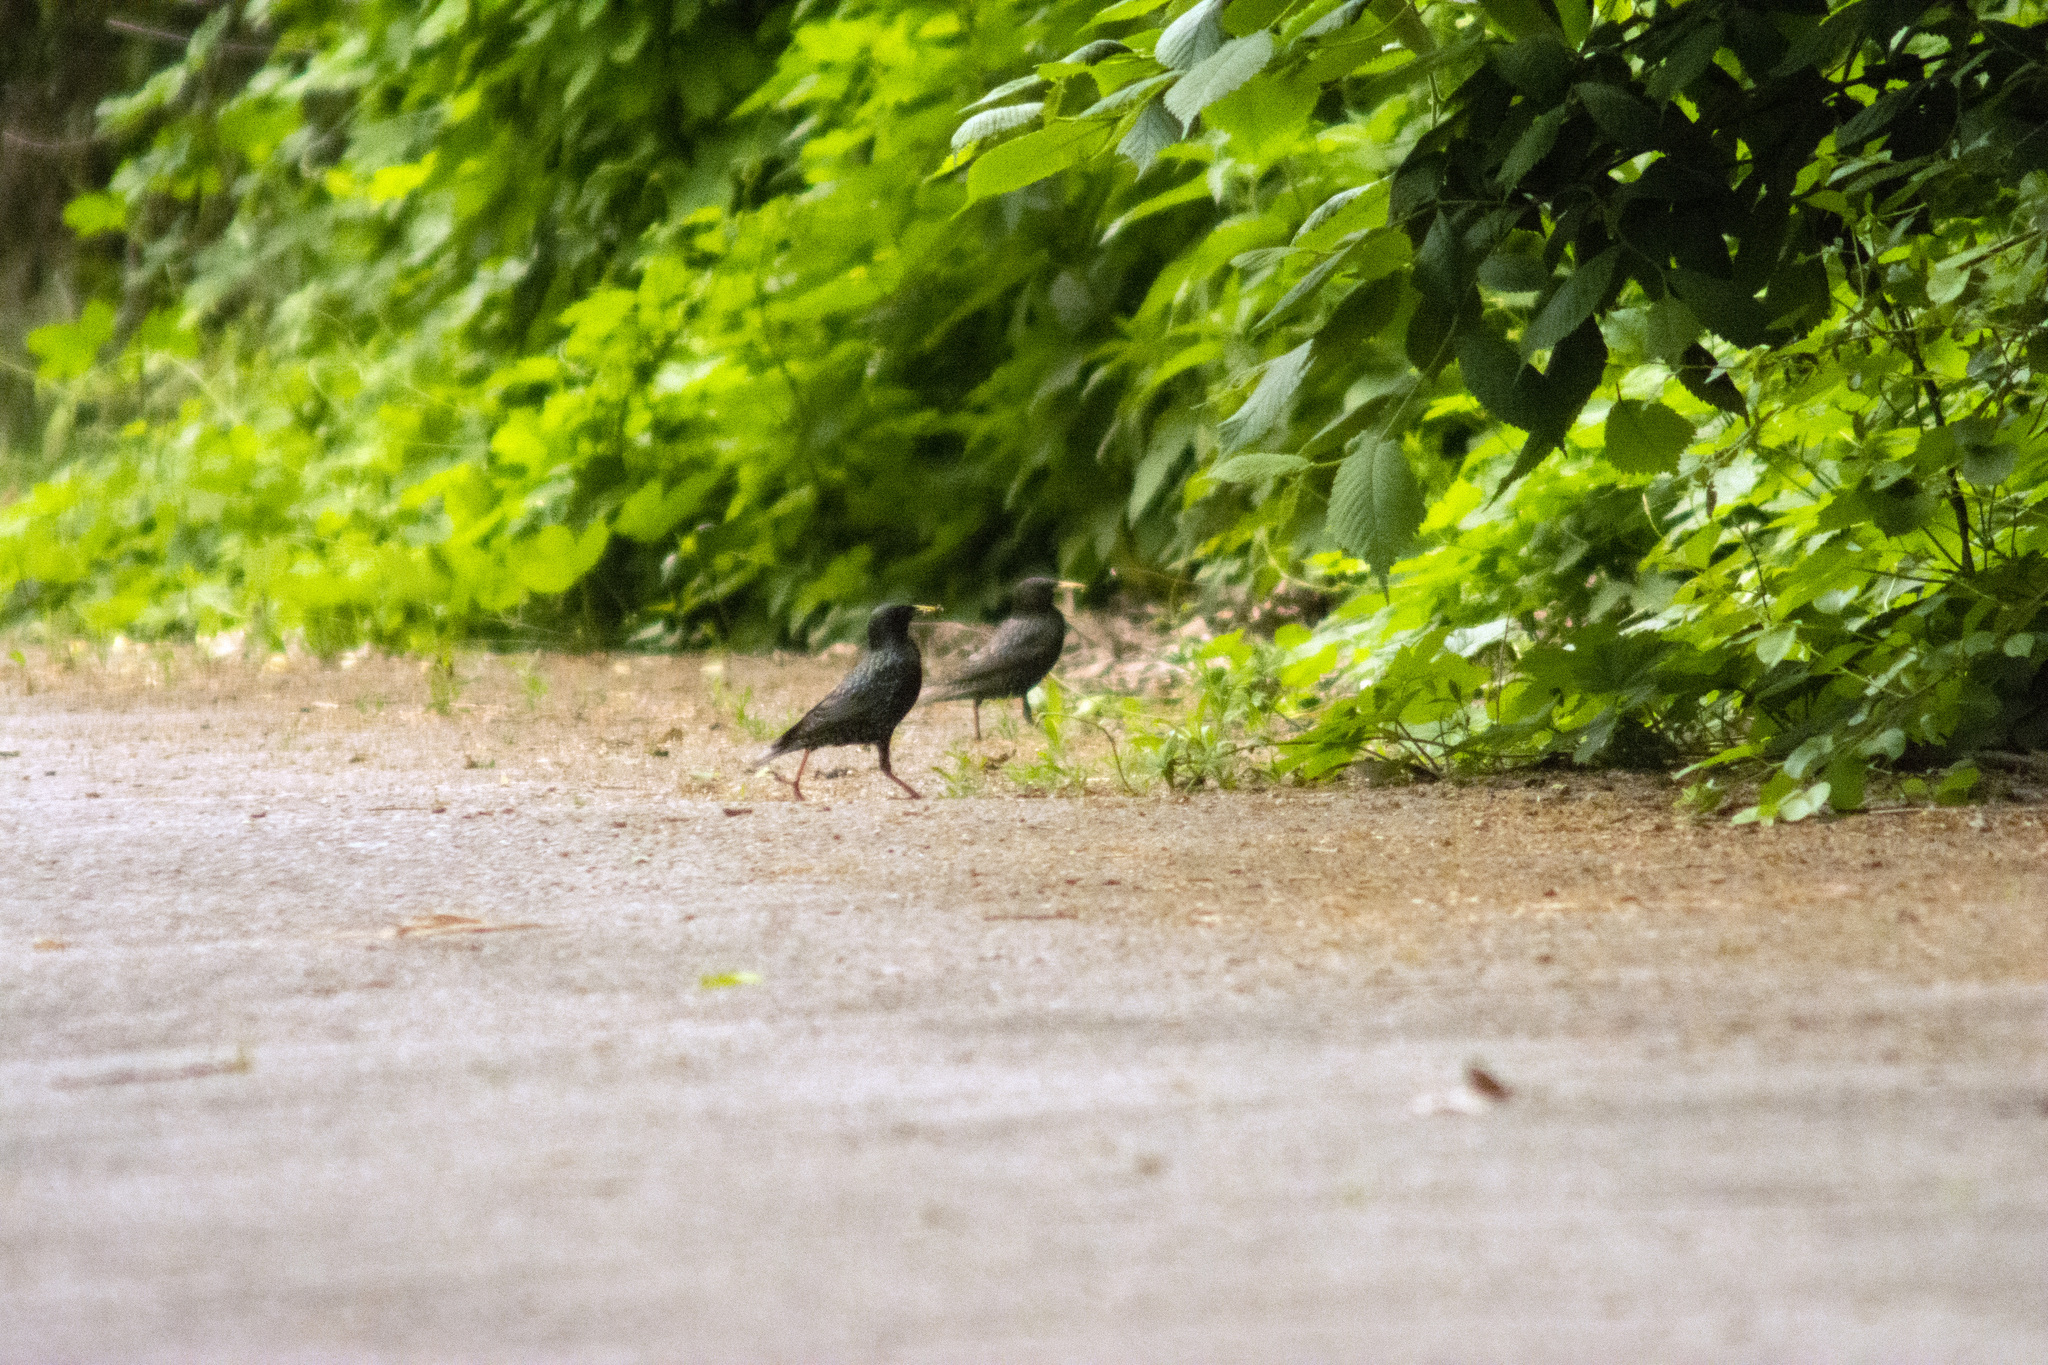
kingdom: Animalia
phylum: Chordata
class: Aves
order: Passeriformes
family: Sturnidae
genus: Sturnus
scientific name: Sturnus vulgaris
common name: Common starling
